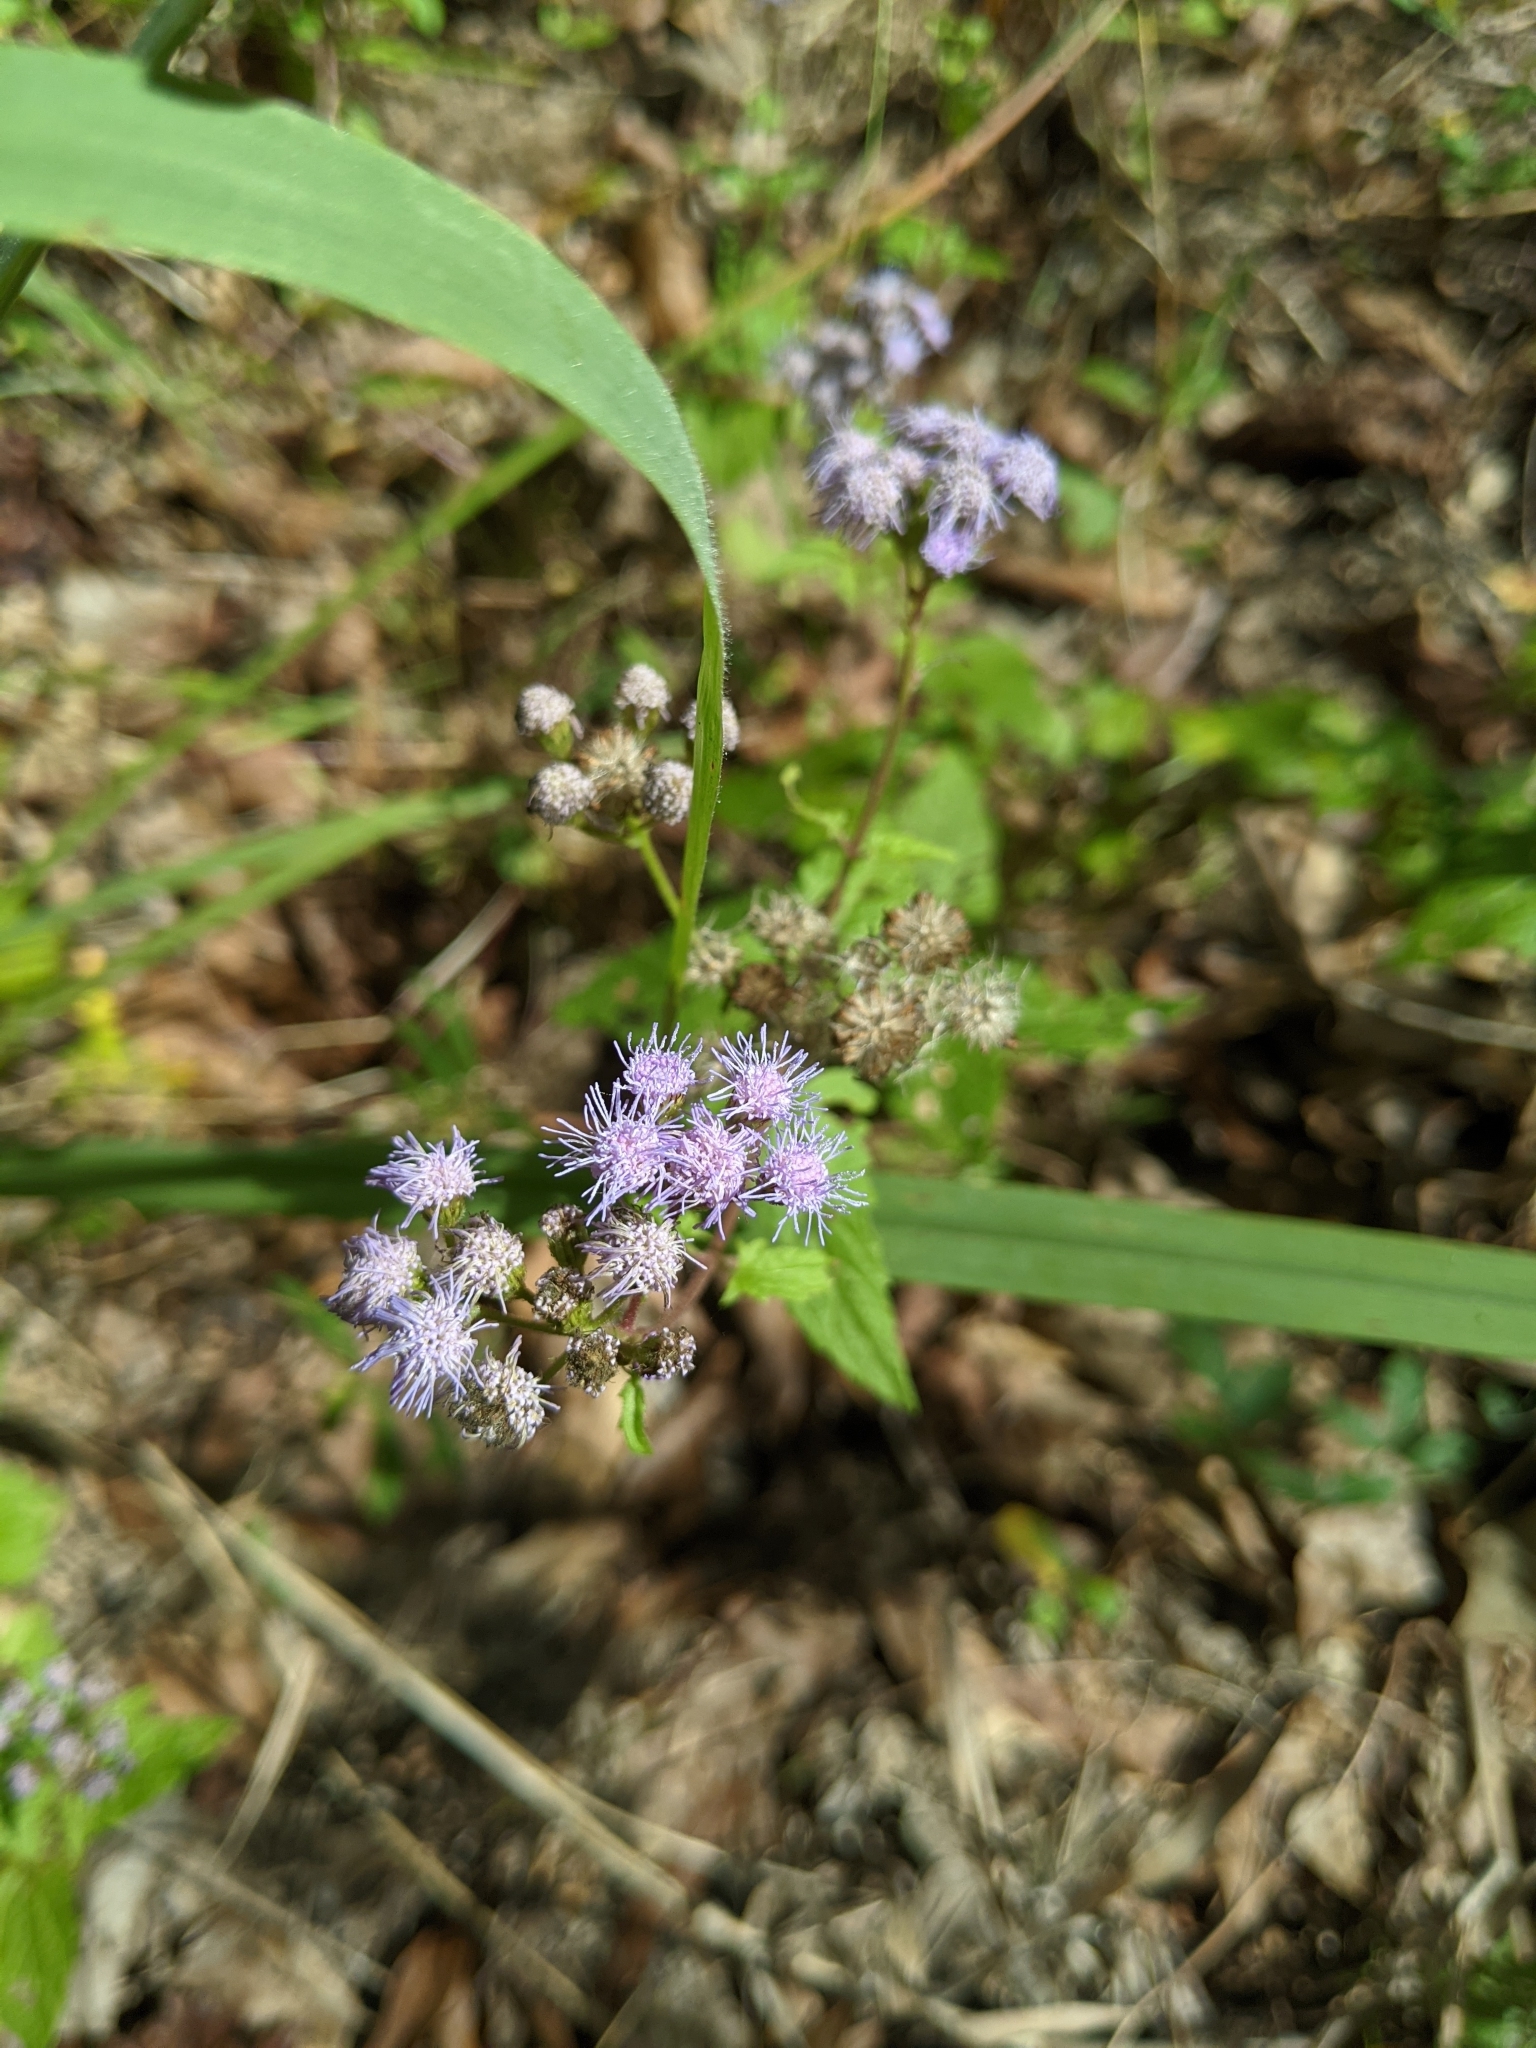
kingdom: Plantae
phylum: Tracheophyta
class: Magnoliopsida
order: Asterales
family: Asteraceae
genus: Conoclinium
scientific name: Conoclinium coelestinum
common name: Blue mistflower
